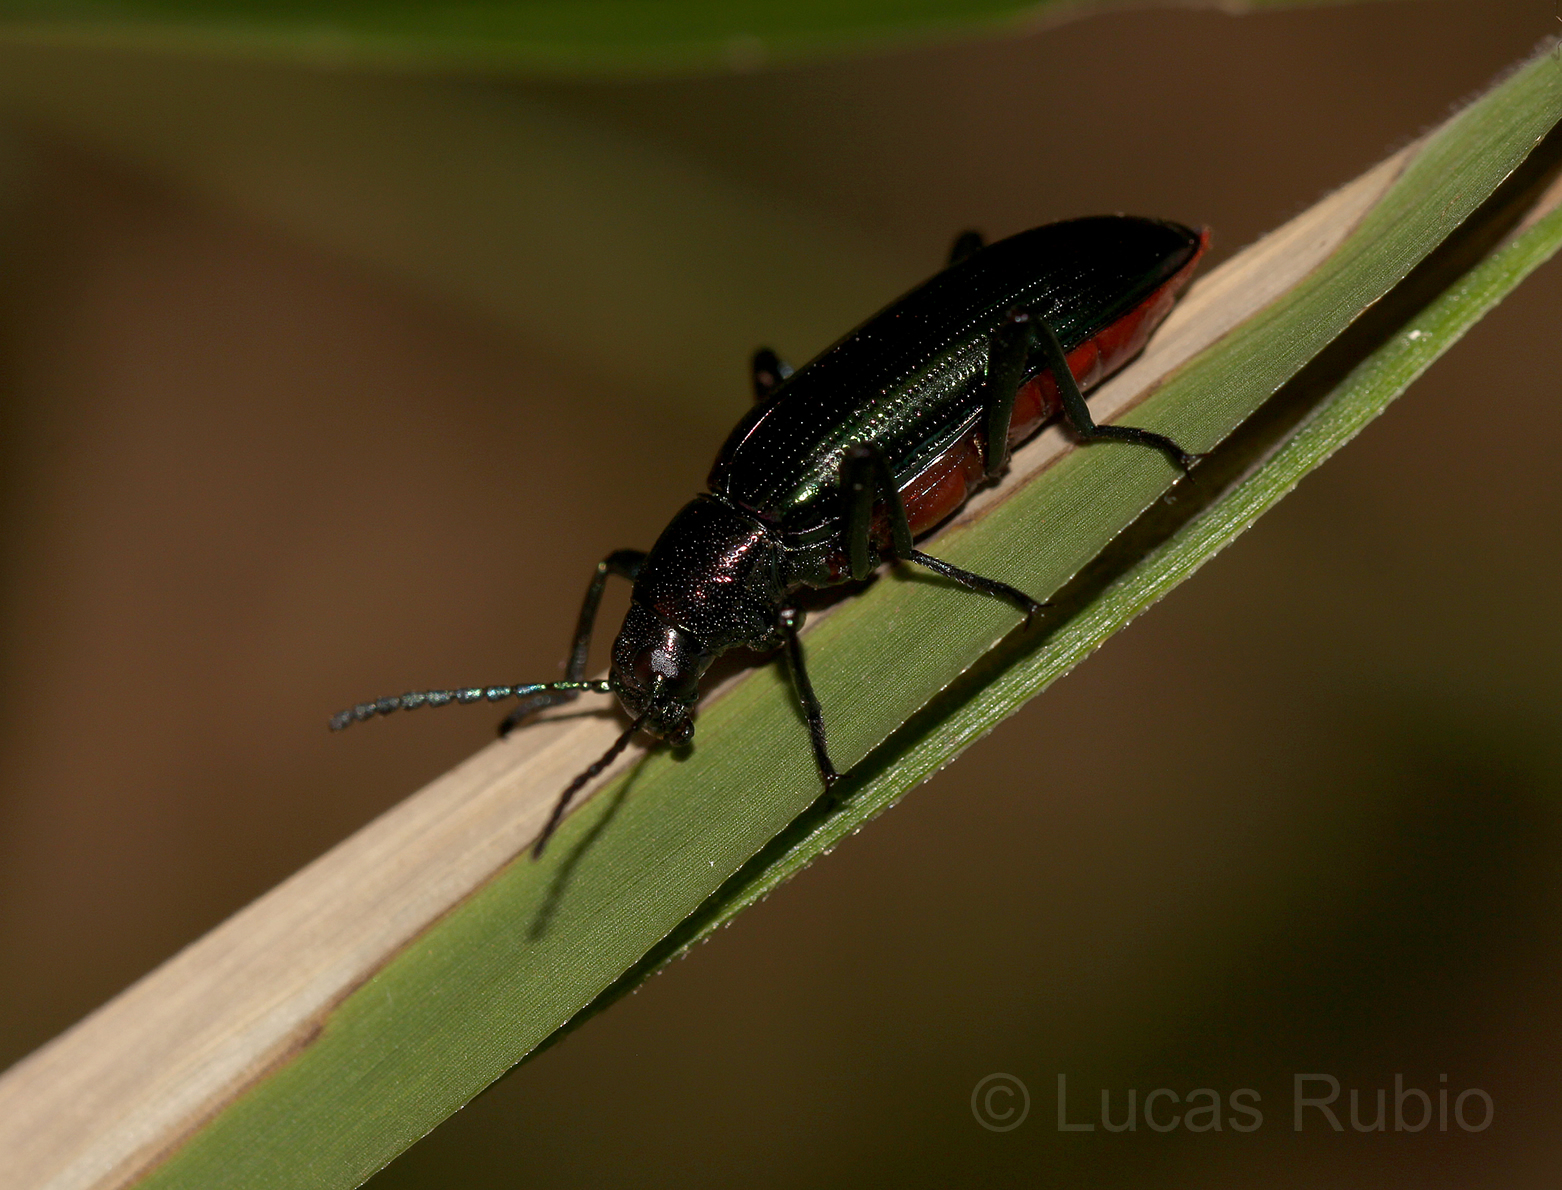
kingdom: Animalia
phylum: Arthropoda
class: Insecta
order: Coleoptera
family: Tenebrionidae
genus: Strongylium
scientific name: Strongylium
